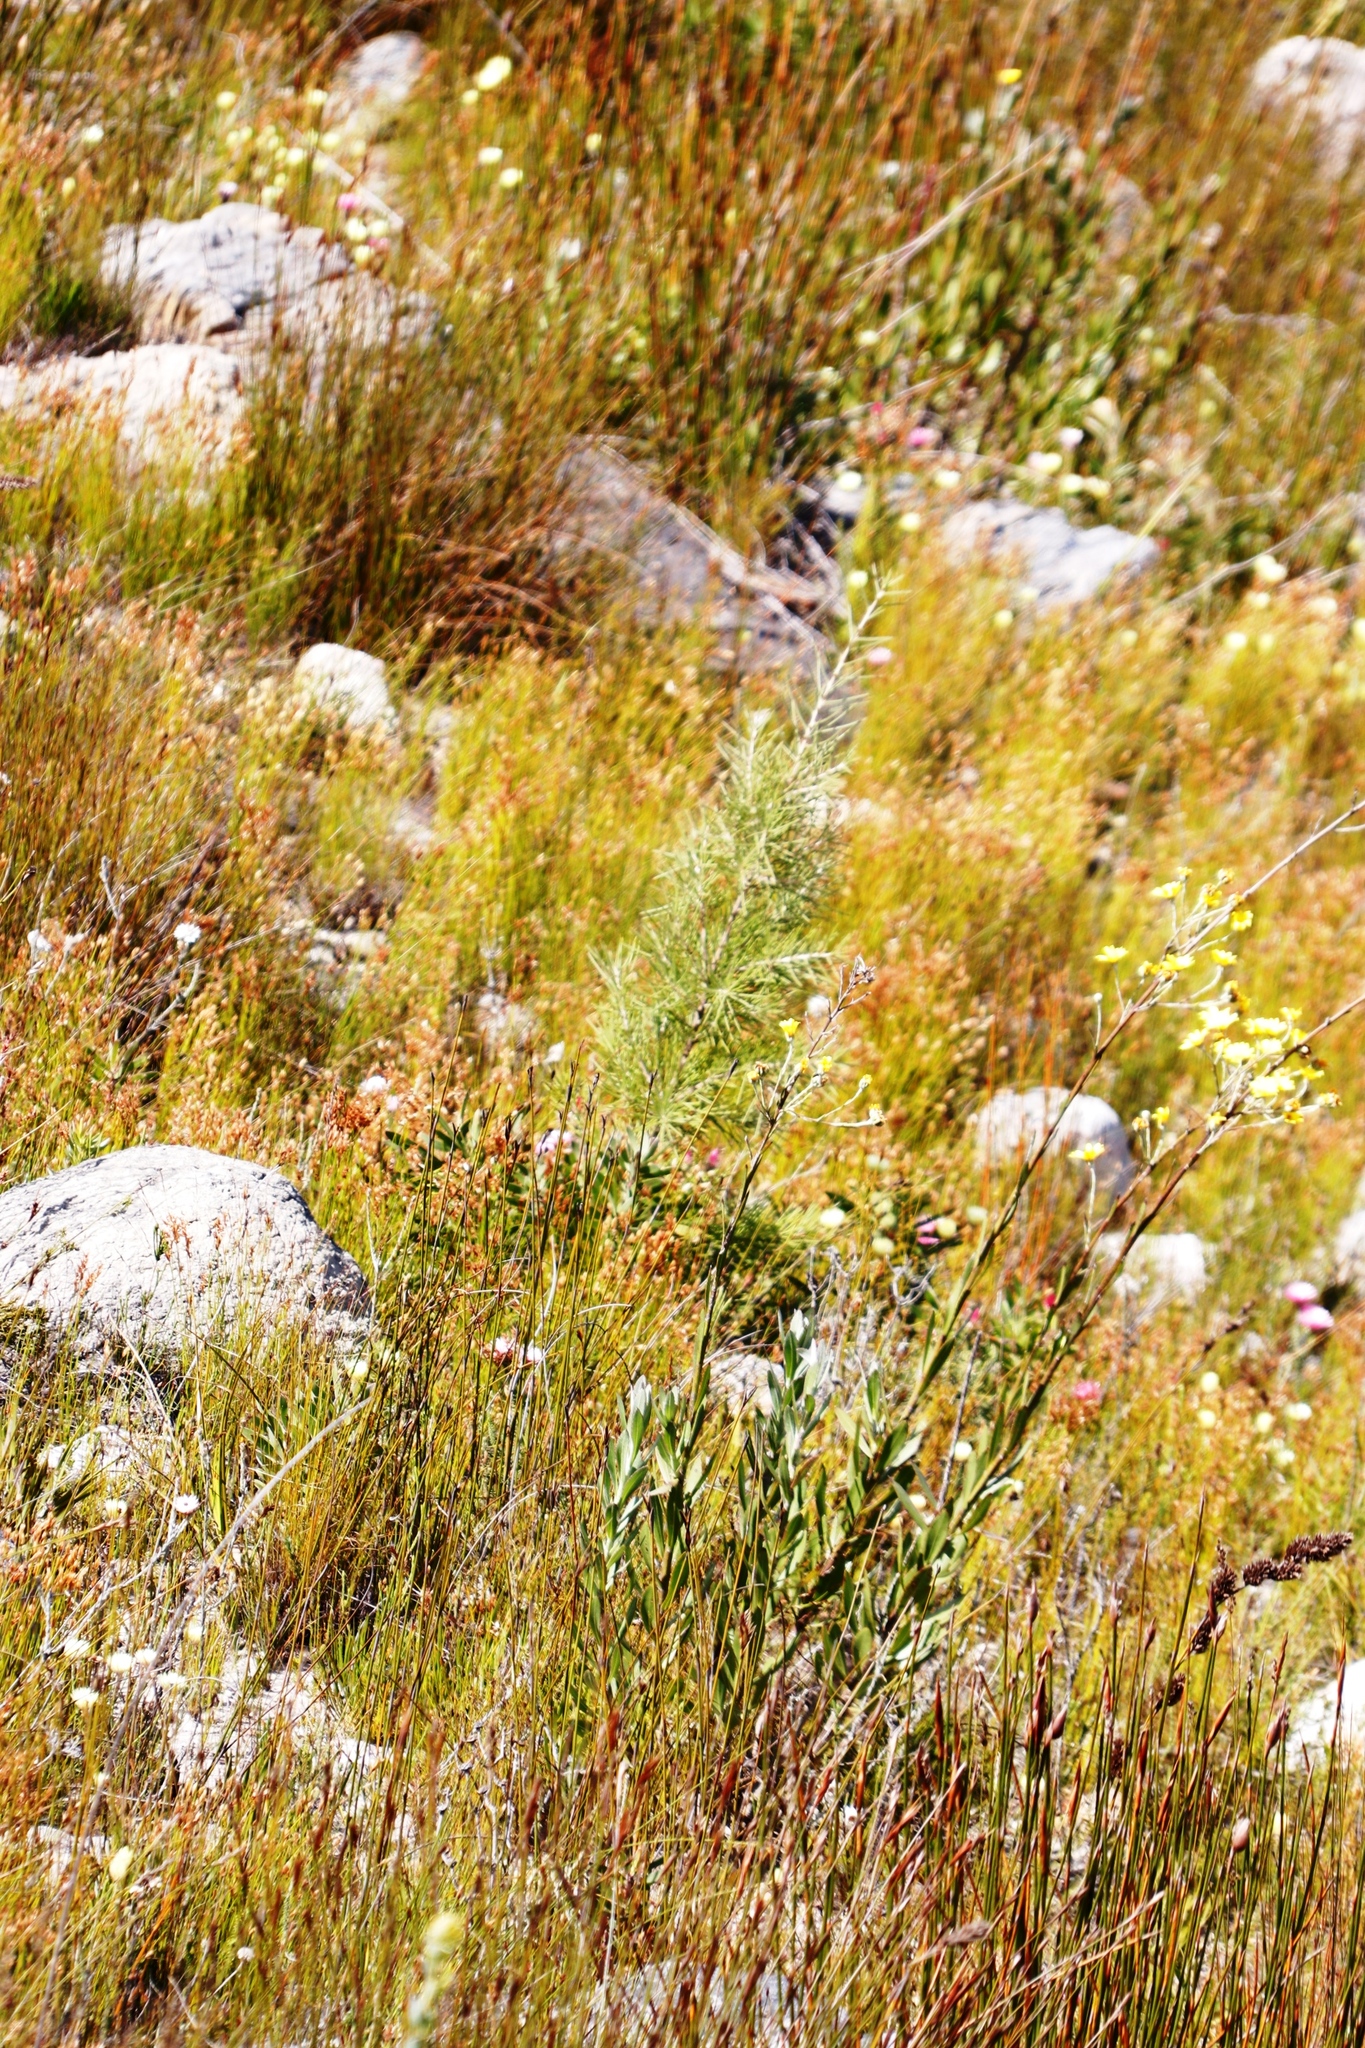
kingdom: Plantae
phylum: Tracheophyta
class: Magnoliopsida
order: Proteales
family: Proteaceae
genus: Hakea
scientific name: Hakea gibbosa
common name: Rock hakea
